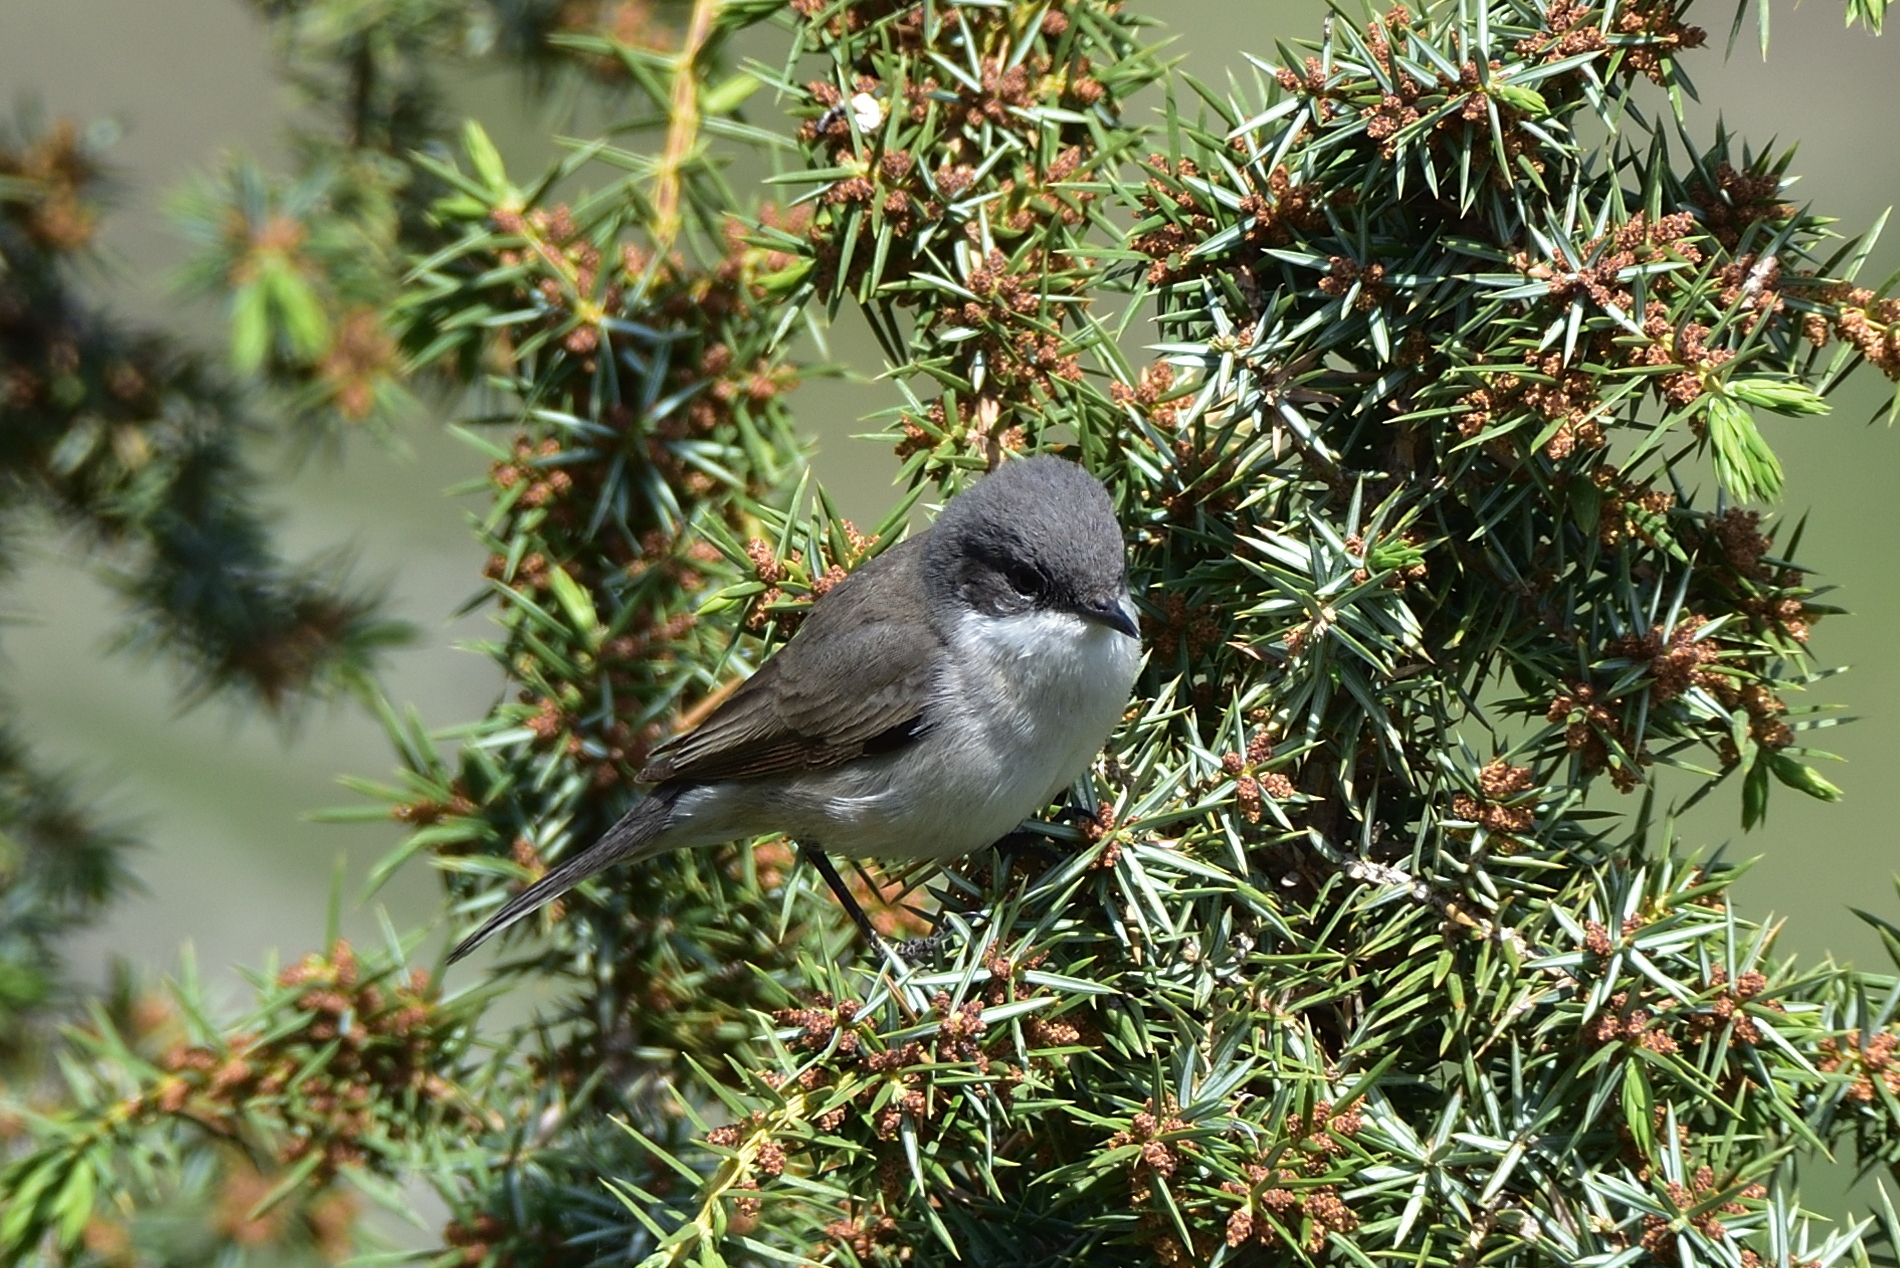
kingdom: Animalia
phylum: Chordata
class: Aves
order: Passeriformes
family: Sylviidae
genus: Sylvia
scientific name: Sylvia curruca
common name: Lesser whitethroat
